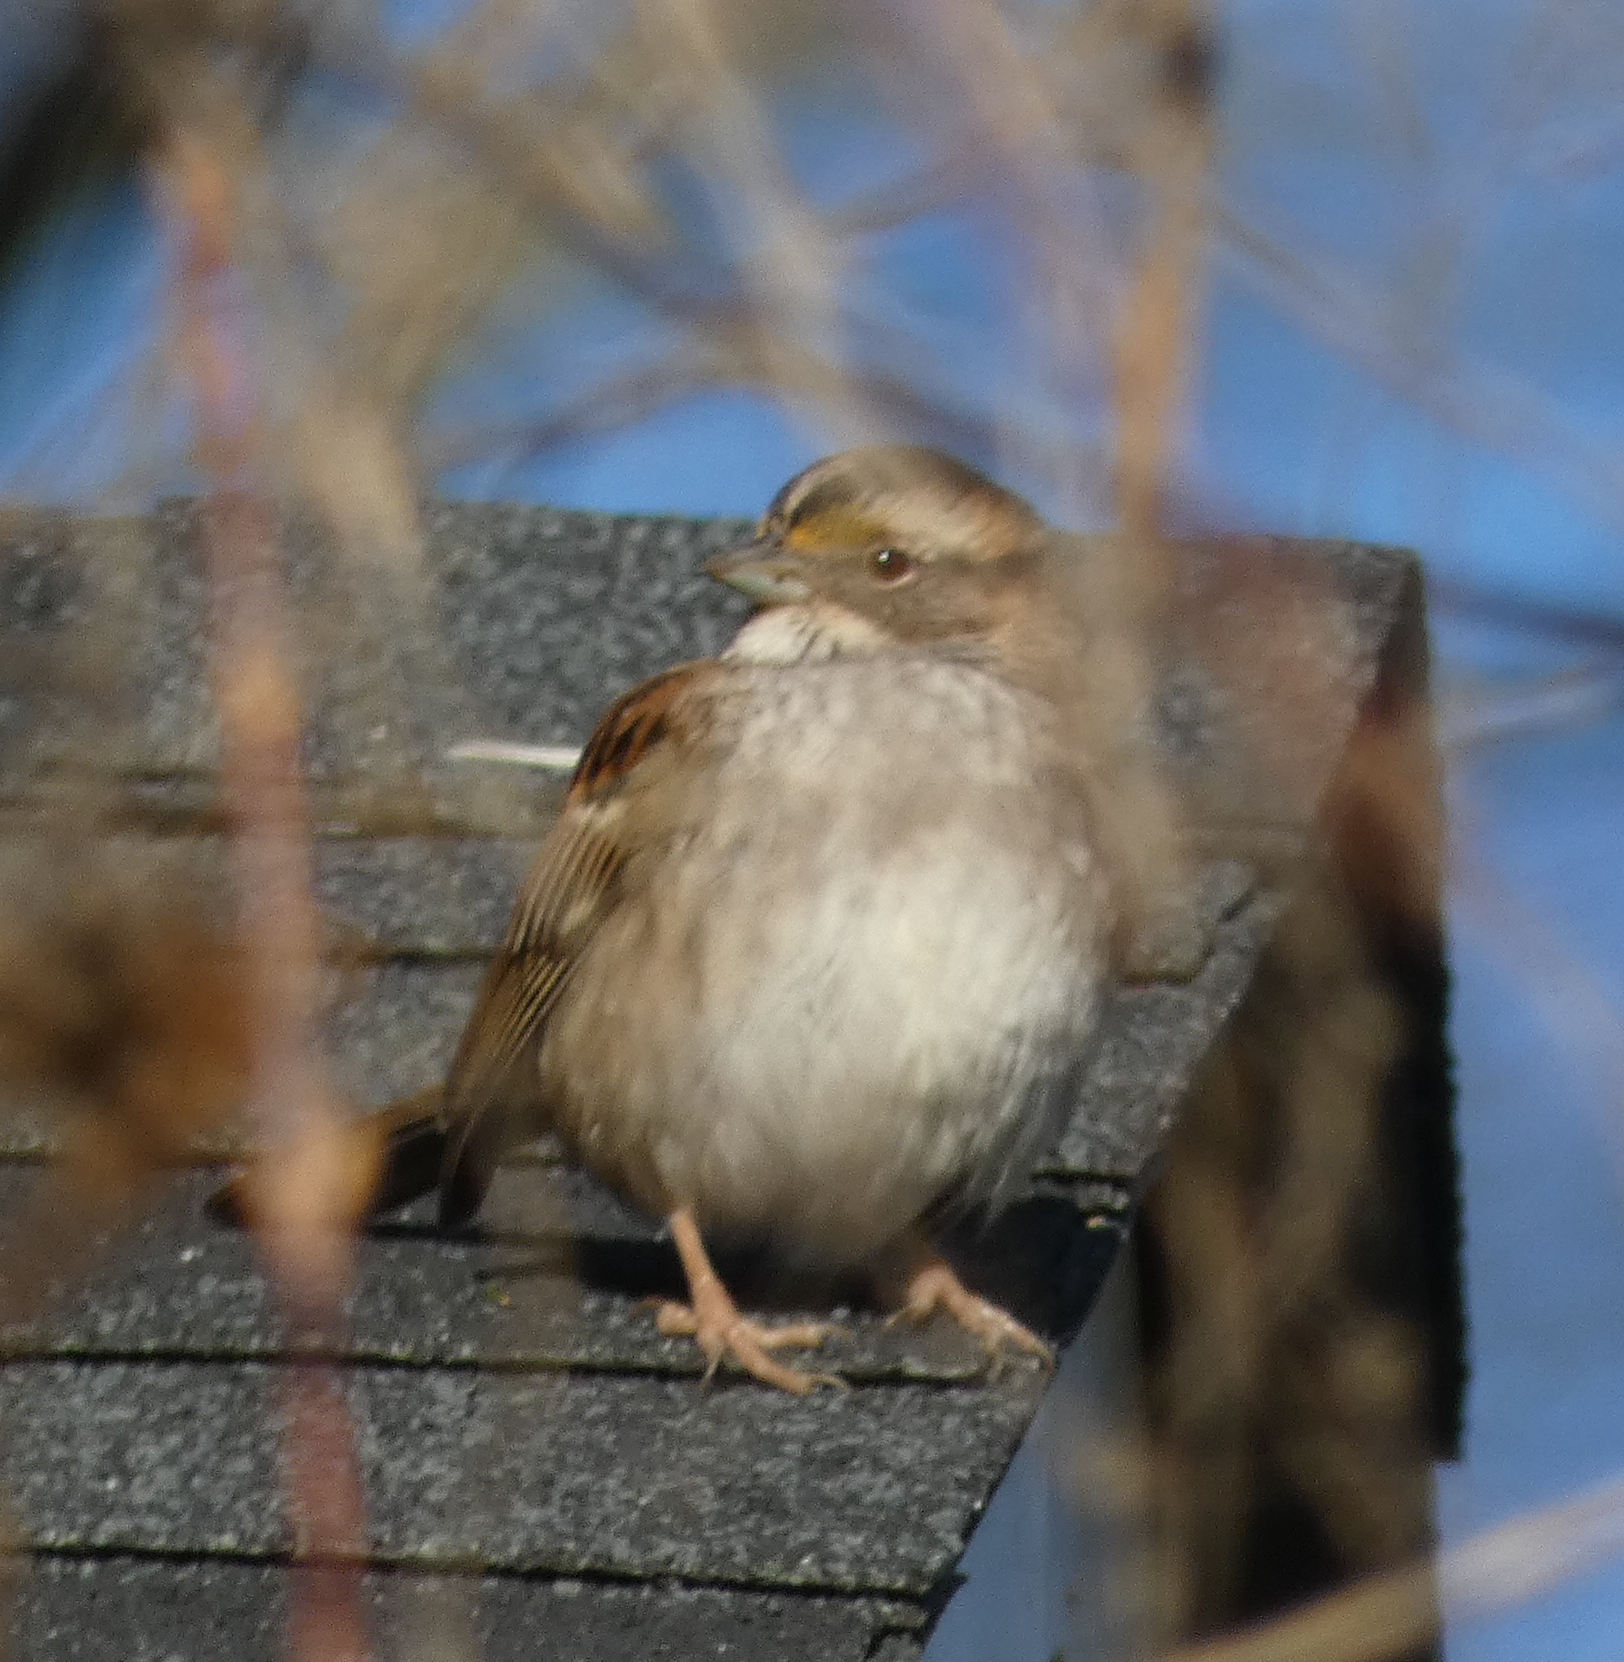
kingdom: Animalia
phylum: Chordata
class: Aves
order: Passeriformes
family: Passerellidae
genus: Zonotrichia
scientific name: Zonotrichia albicollis
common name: White-throated sparrow
